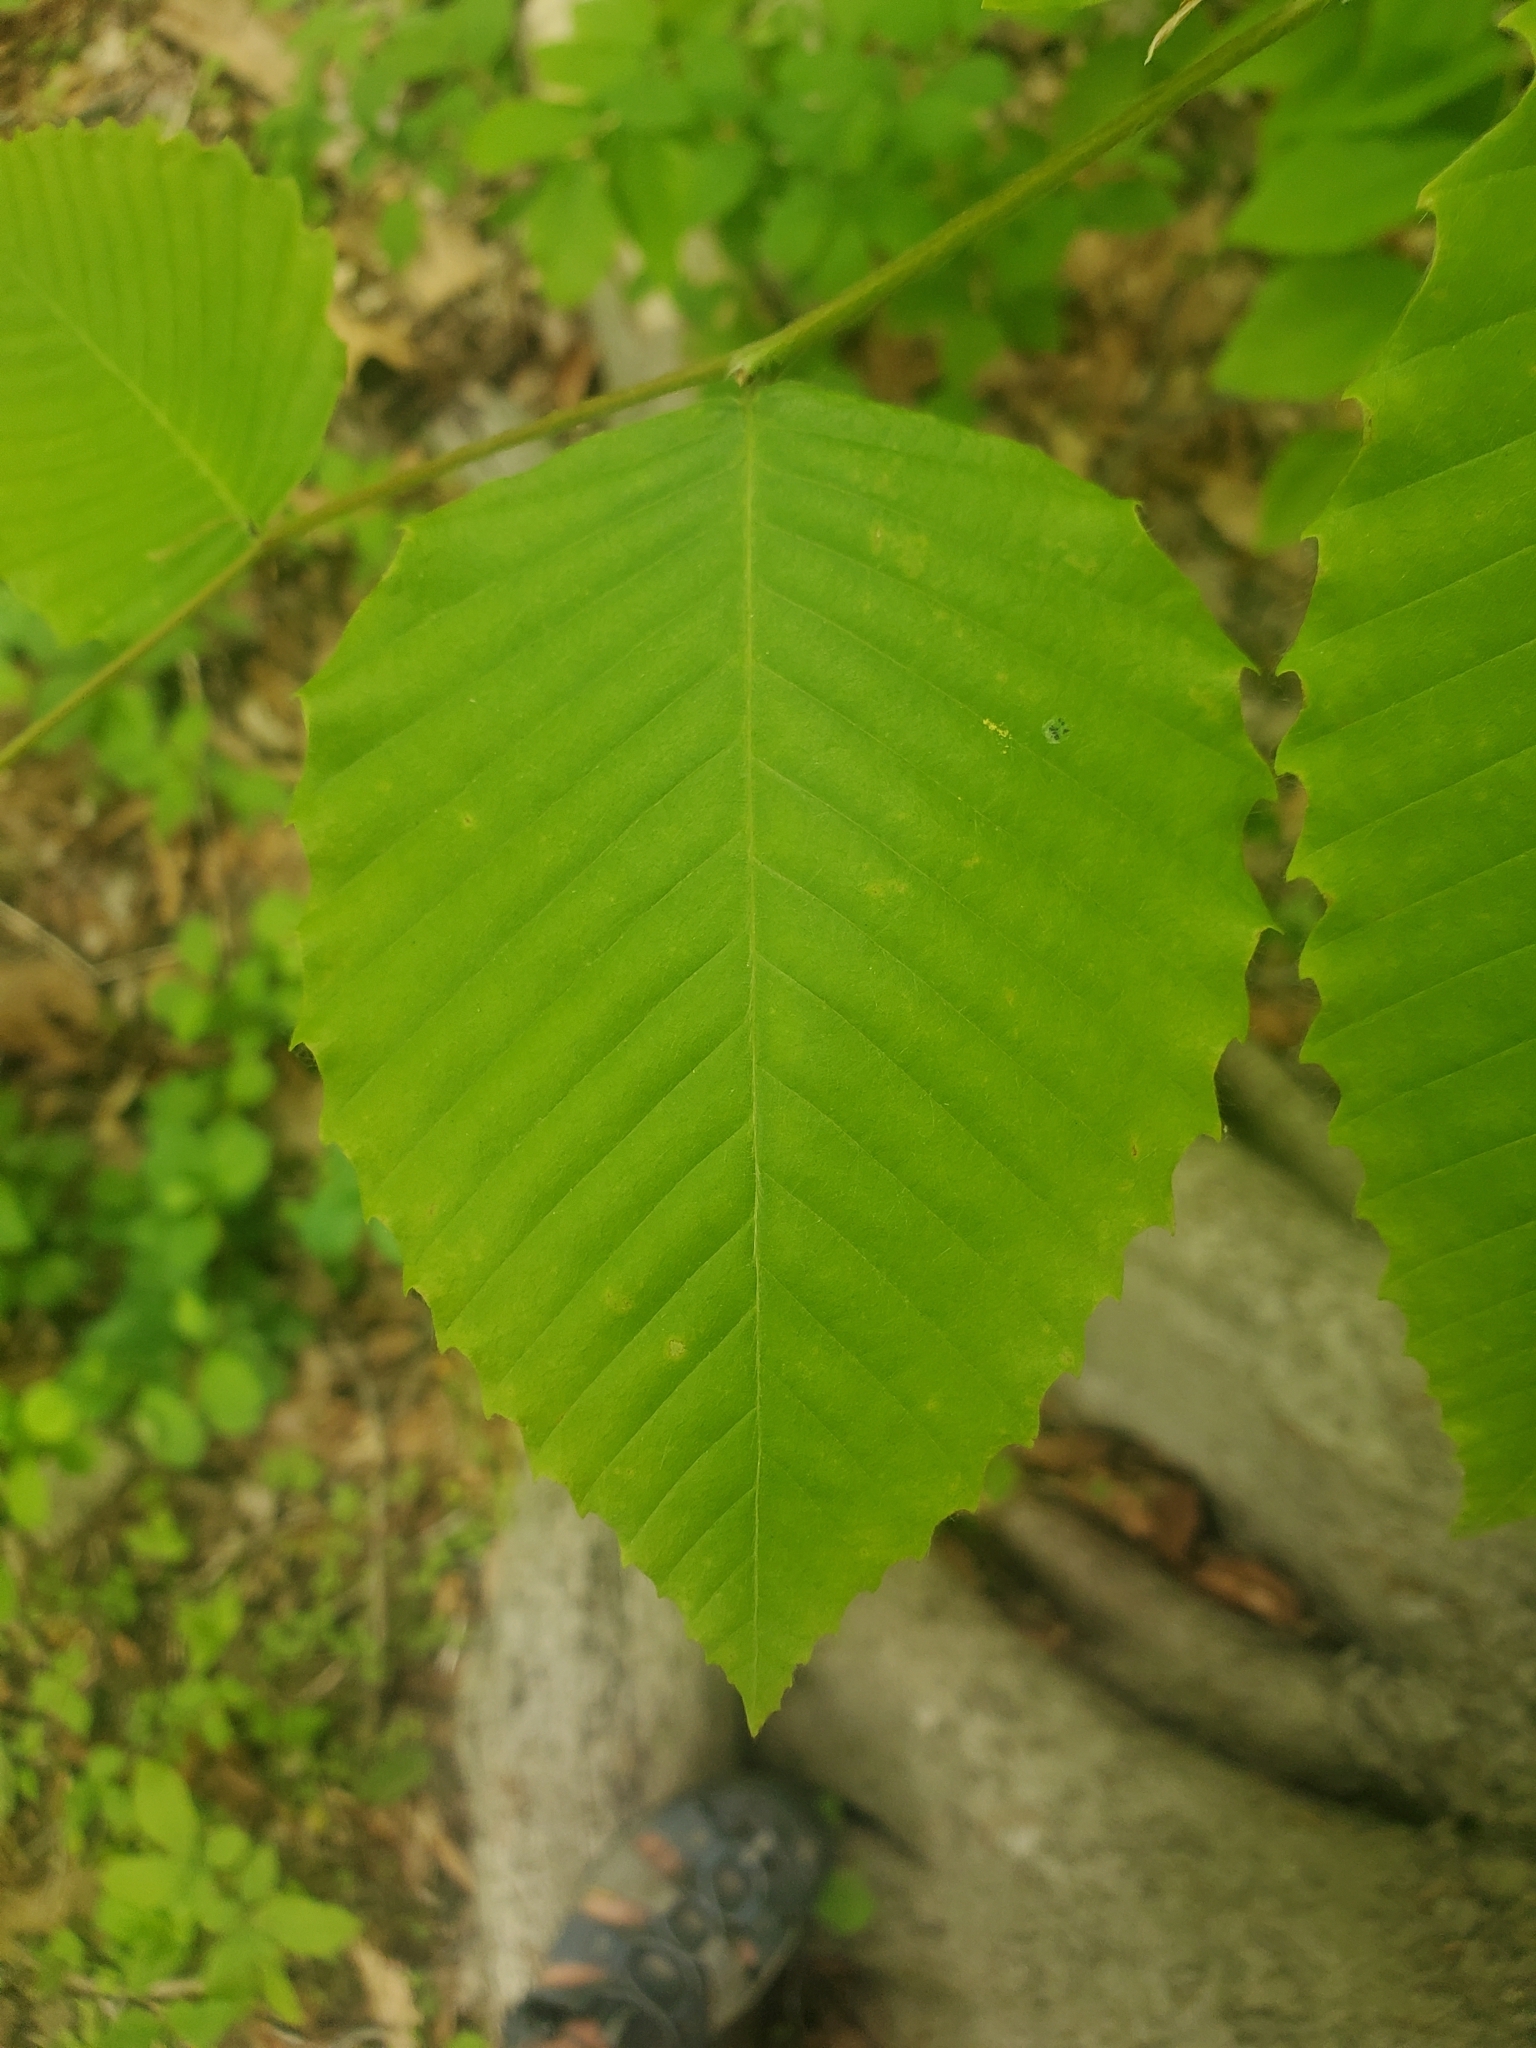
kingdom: Plantae
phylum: Tracheophyta
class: Magnoliopsida
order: Fagales
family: Fagaceae
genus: Fagus
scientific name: Fagus grandifolia
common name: American beech
